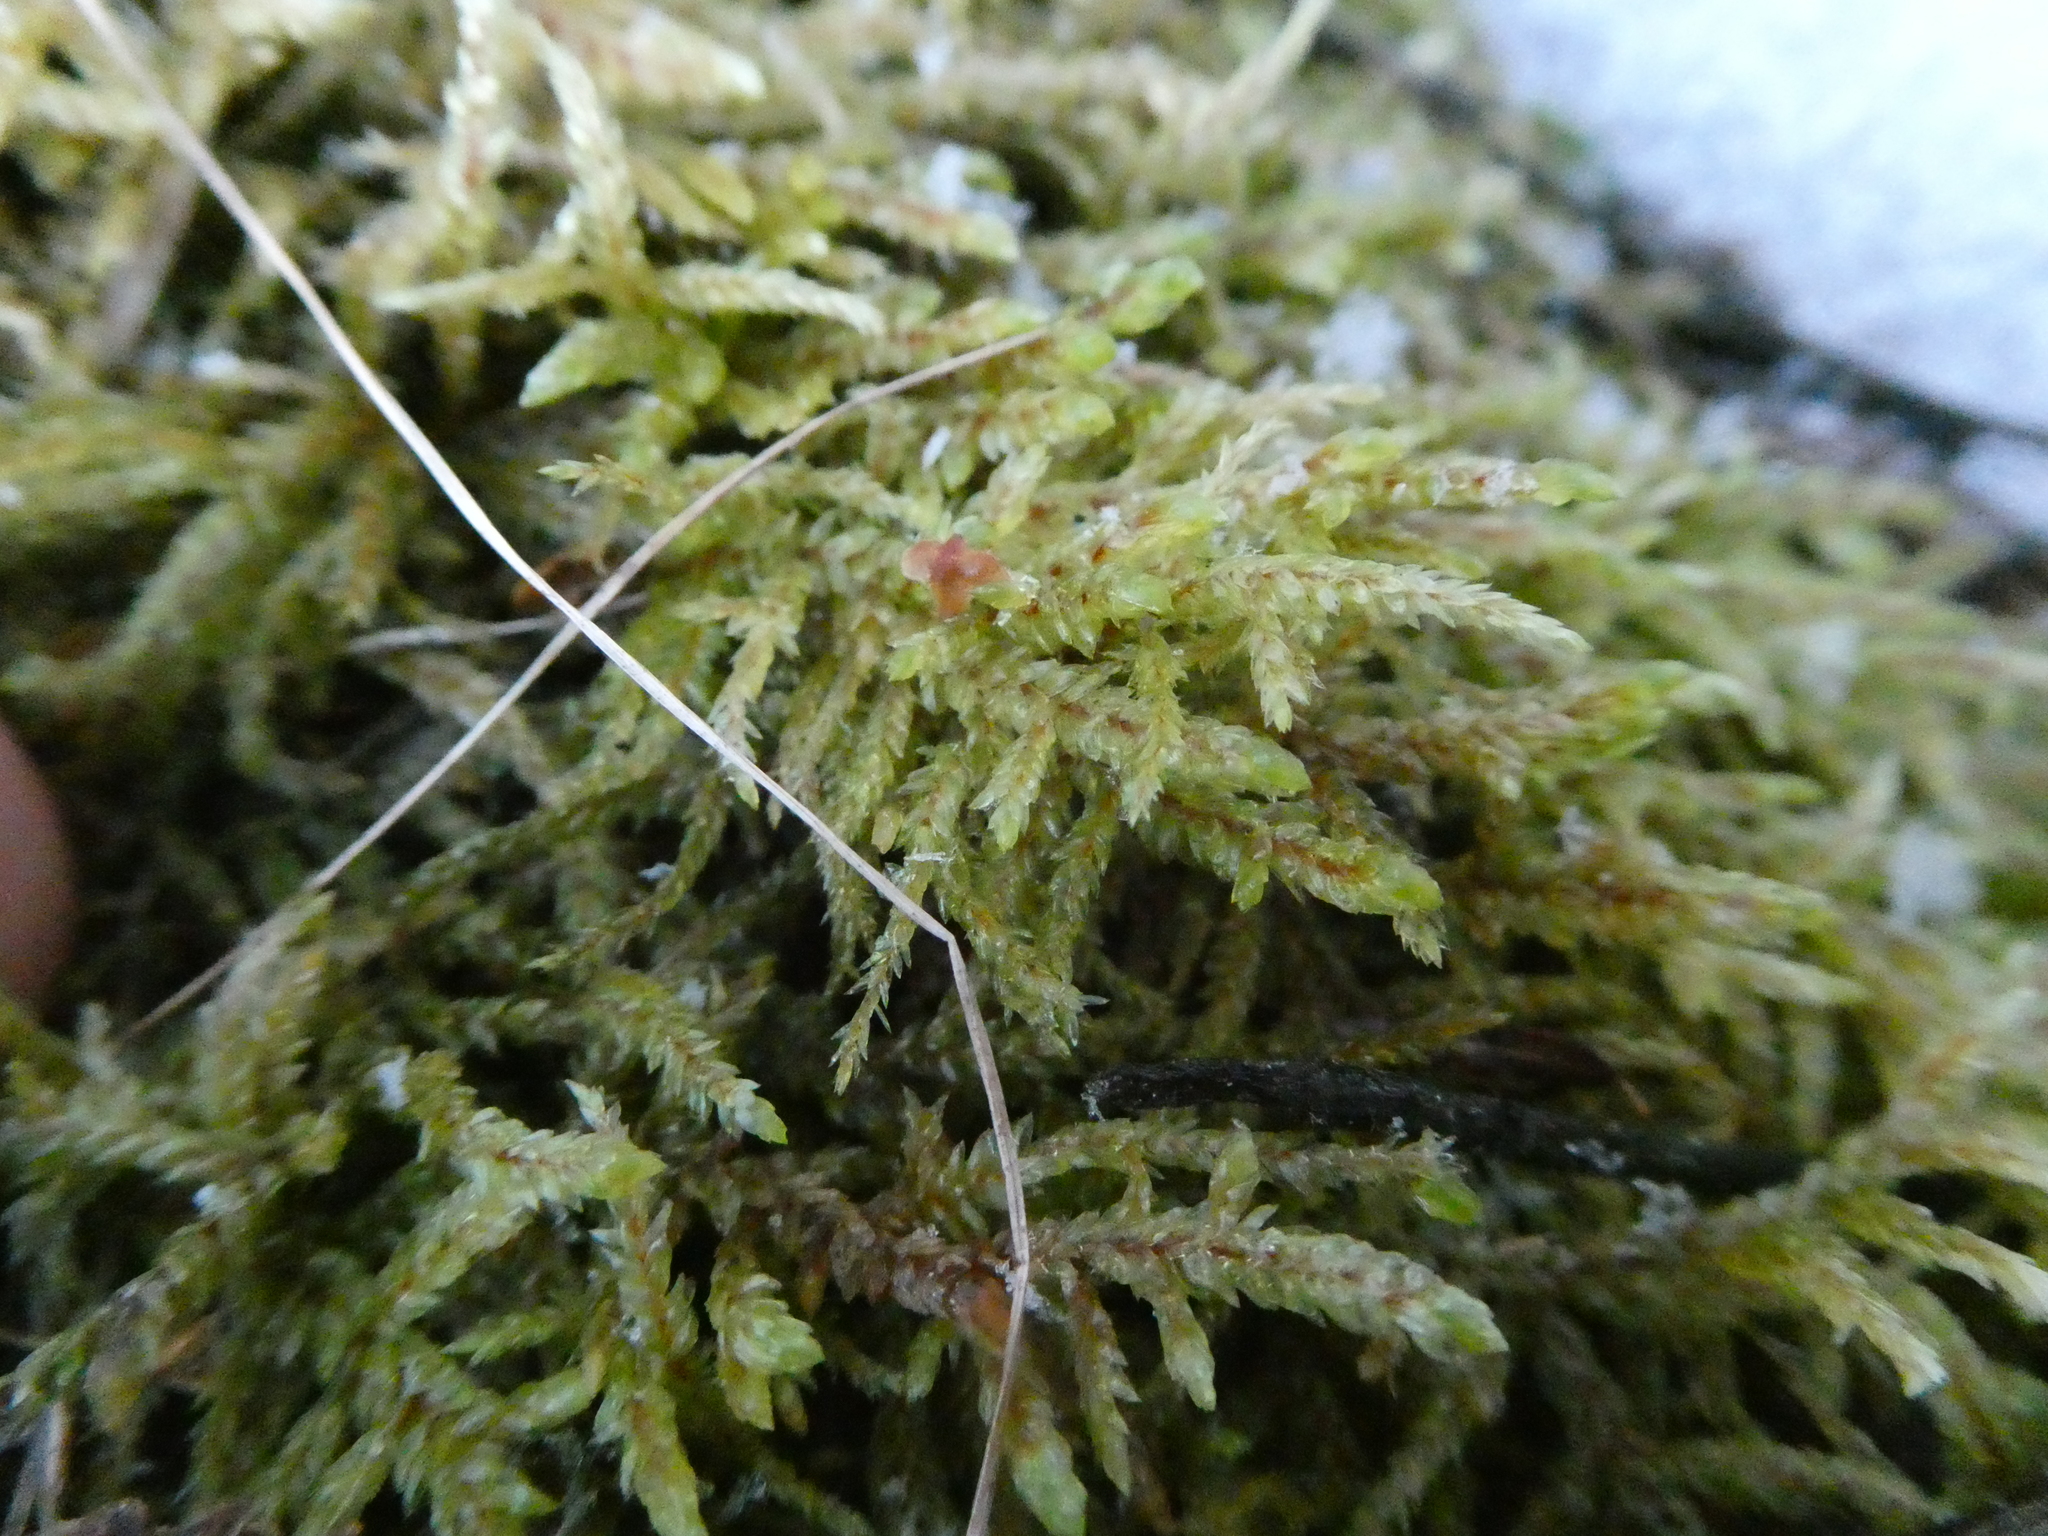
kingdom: Plantae
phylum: Bryophyta
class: Bryopsida
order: Hypnales
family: Hylocomiaceae
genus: Pleurozium
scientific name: Pleurozium schreberi
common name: Red-stemmed feather moss
